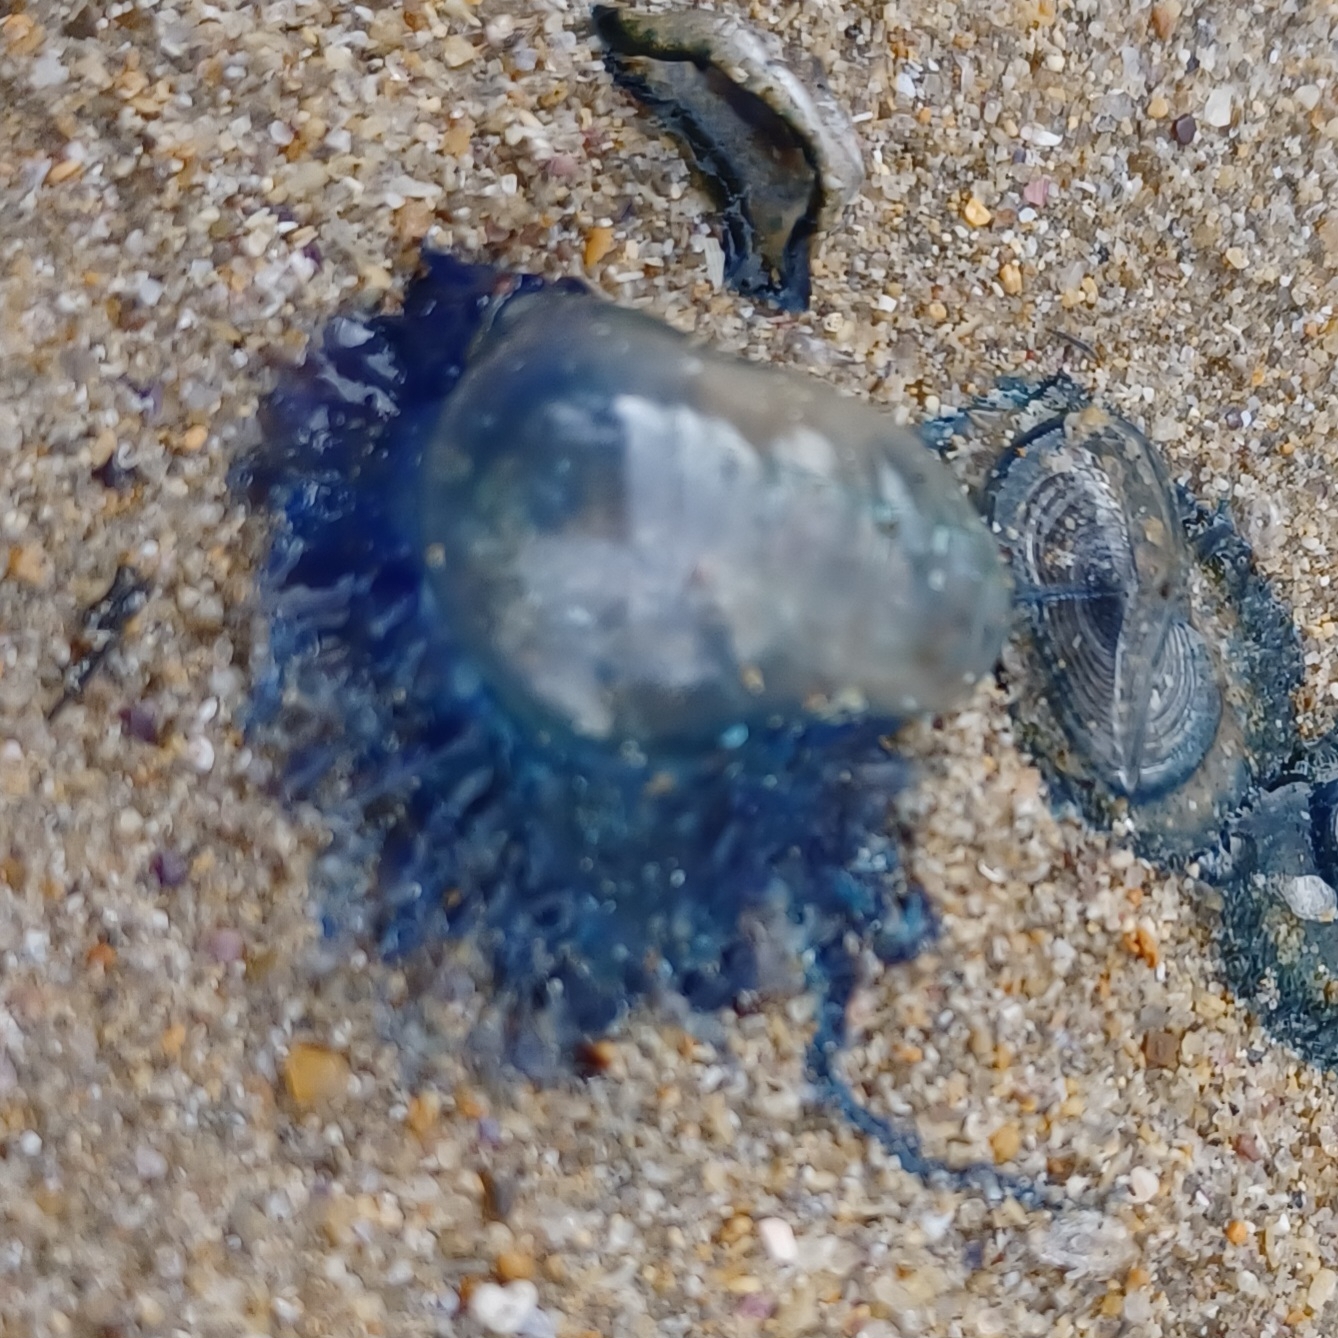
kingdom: Animalia
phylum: Cnidaria
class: Hydrozoa
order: Siphonophorae
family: Physaliidae
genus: Physalia
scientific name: Physalia physalis
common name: Portuguese man-of-war
